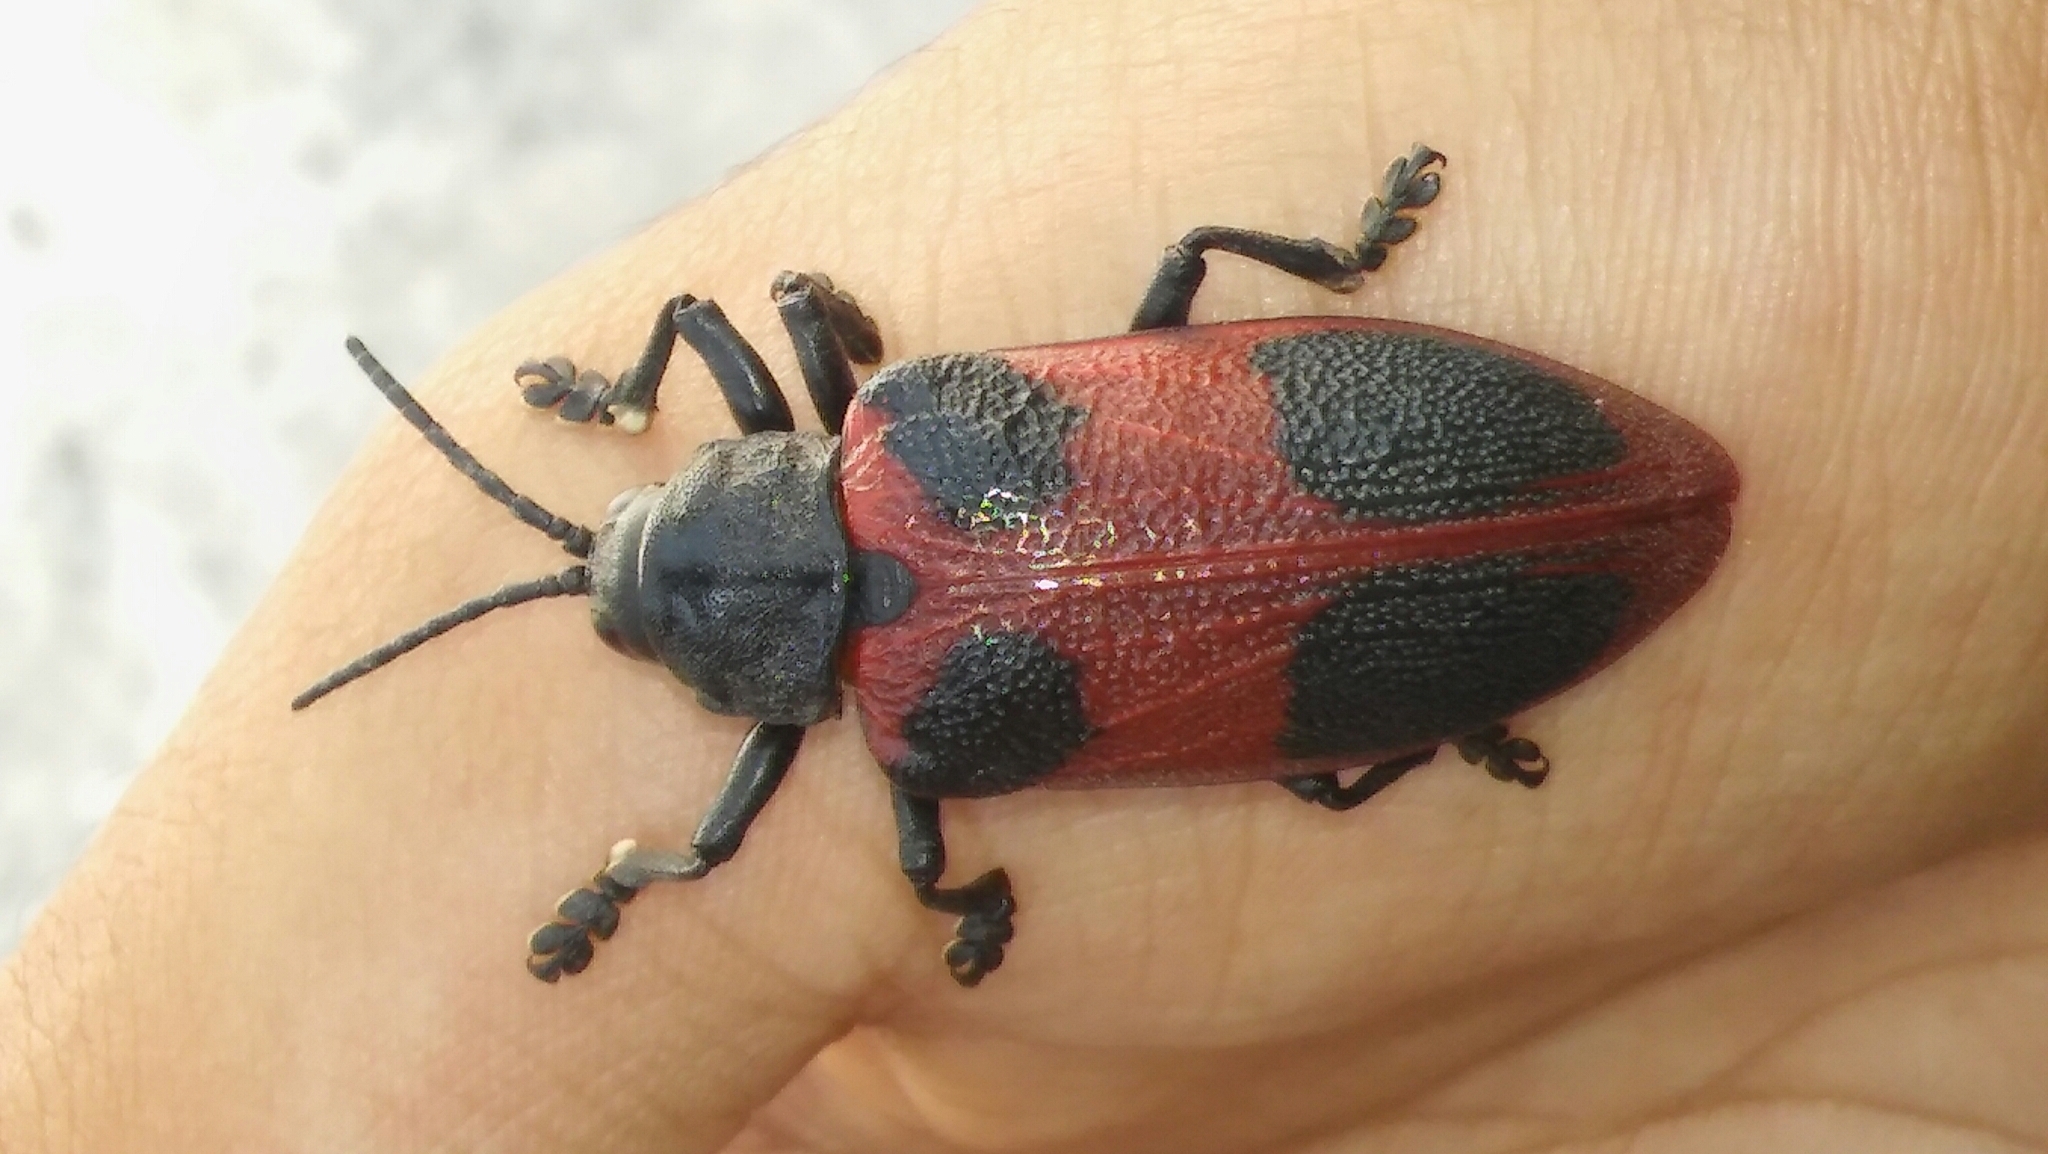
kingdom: Animalia
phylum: Arthropoda
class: Insecta
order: Coleoptera
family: Chrysomelidae
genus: Coraliomela
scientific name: Coraliomela quadrimaculata
